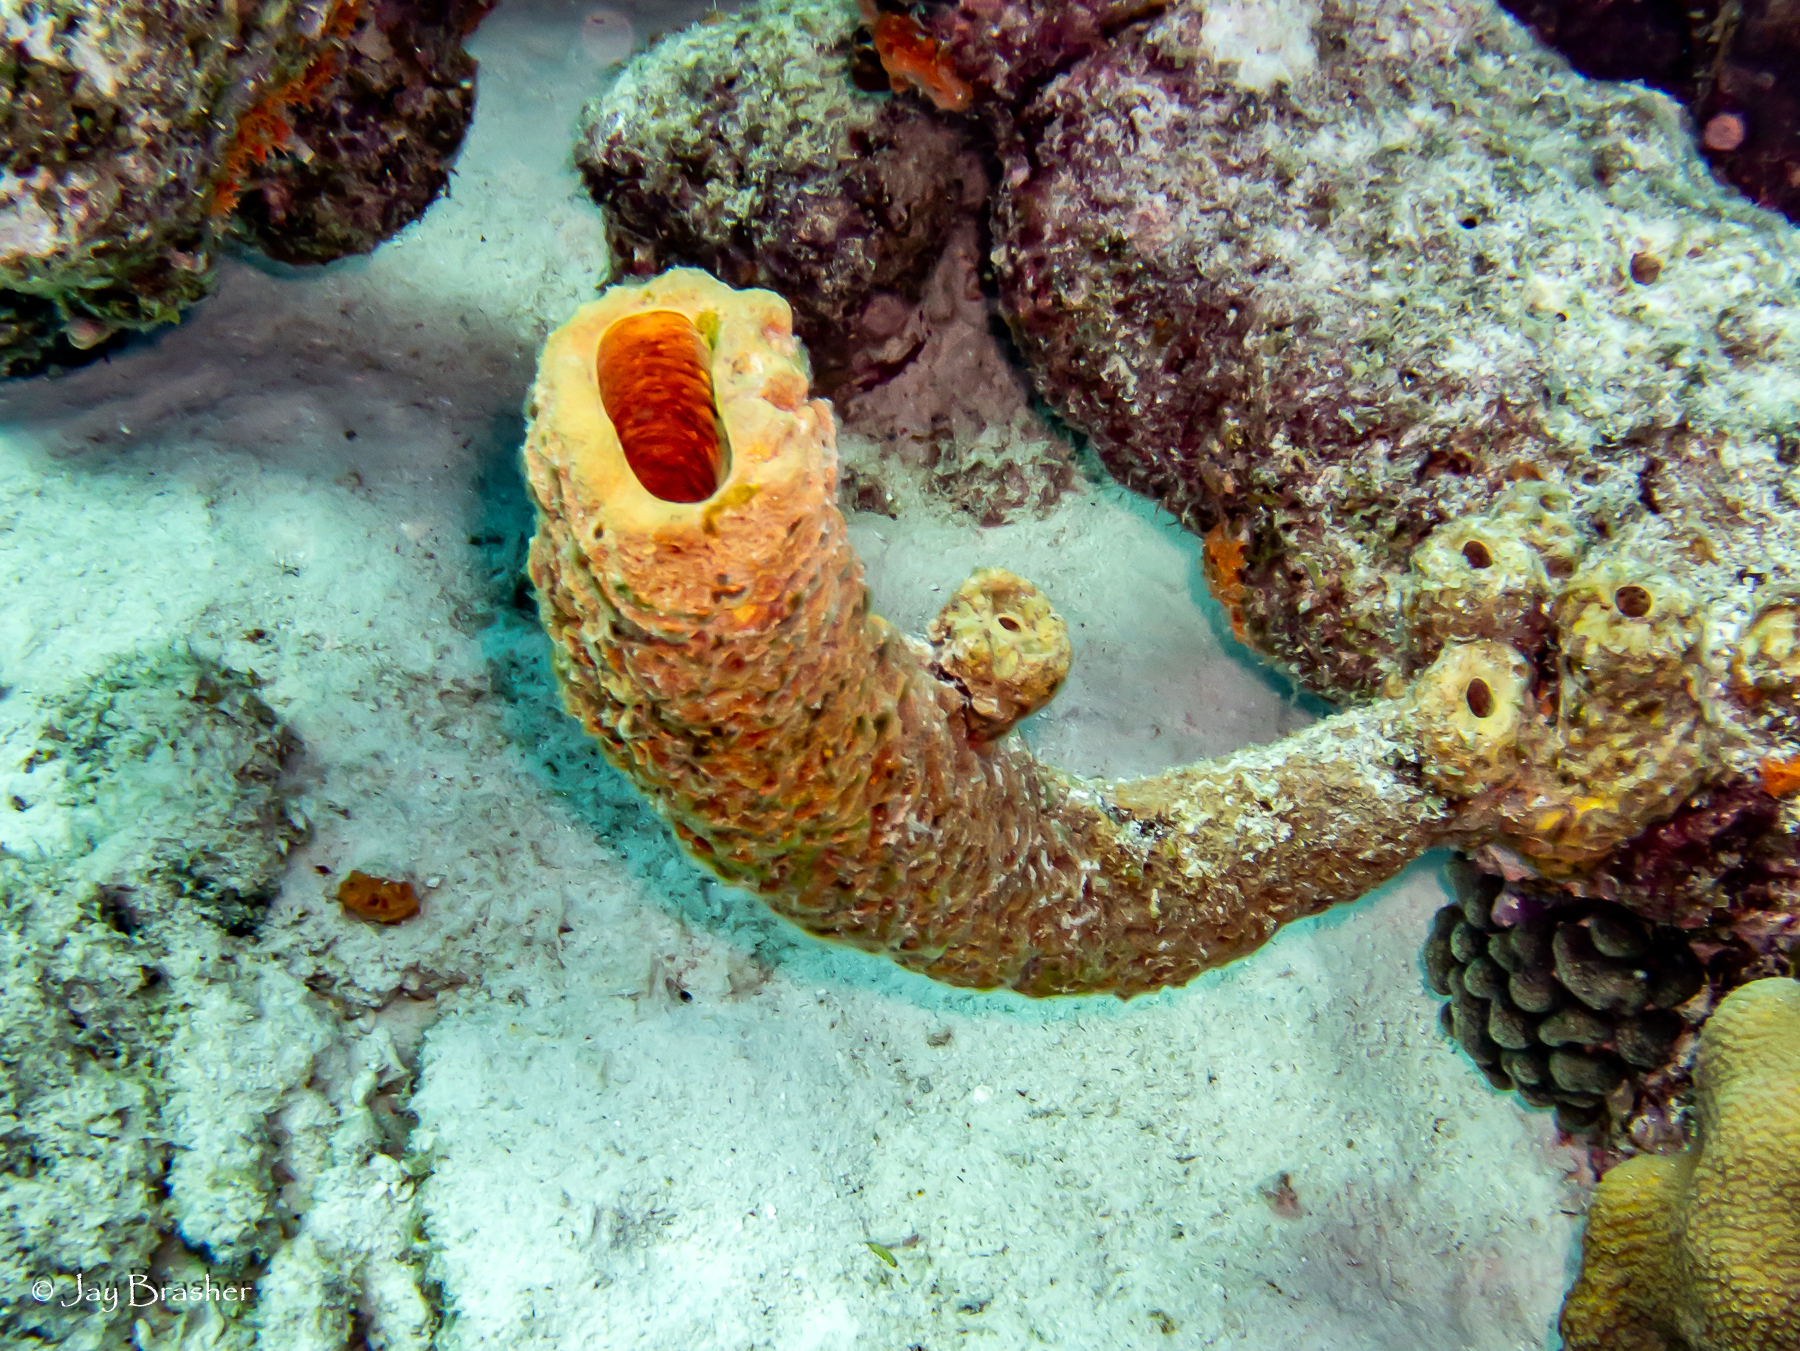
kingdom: Animalia
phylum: Porifera
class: Demospongiae
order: Verongiida
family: Aplysinidae
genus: Aplysina
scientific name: Aplysina archeri
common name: Stove-pipe sponge
